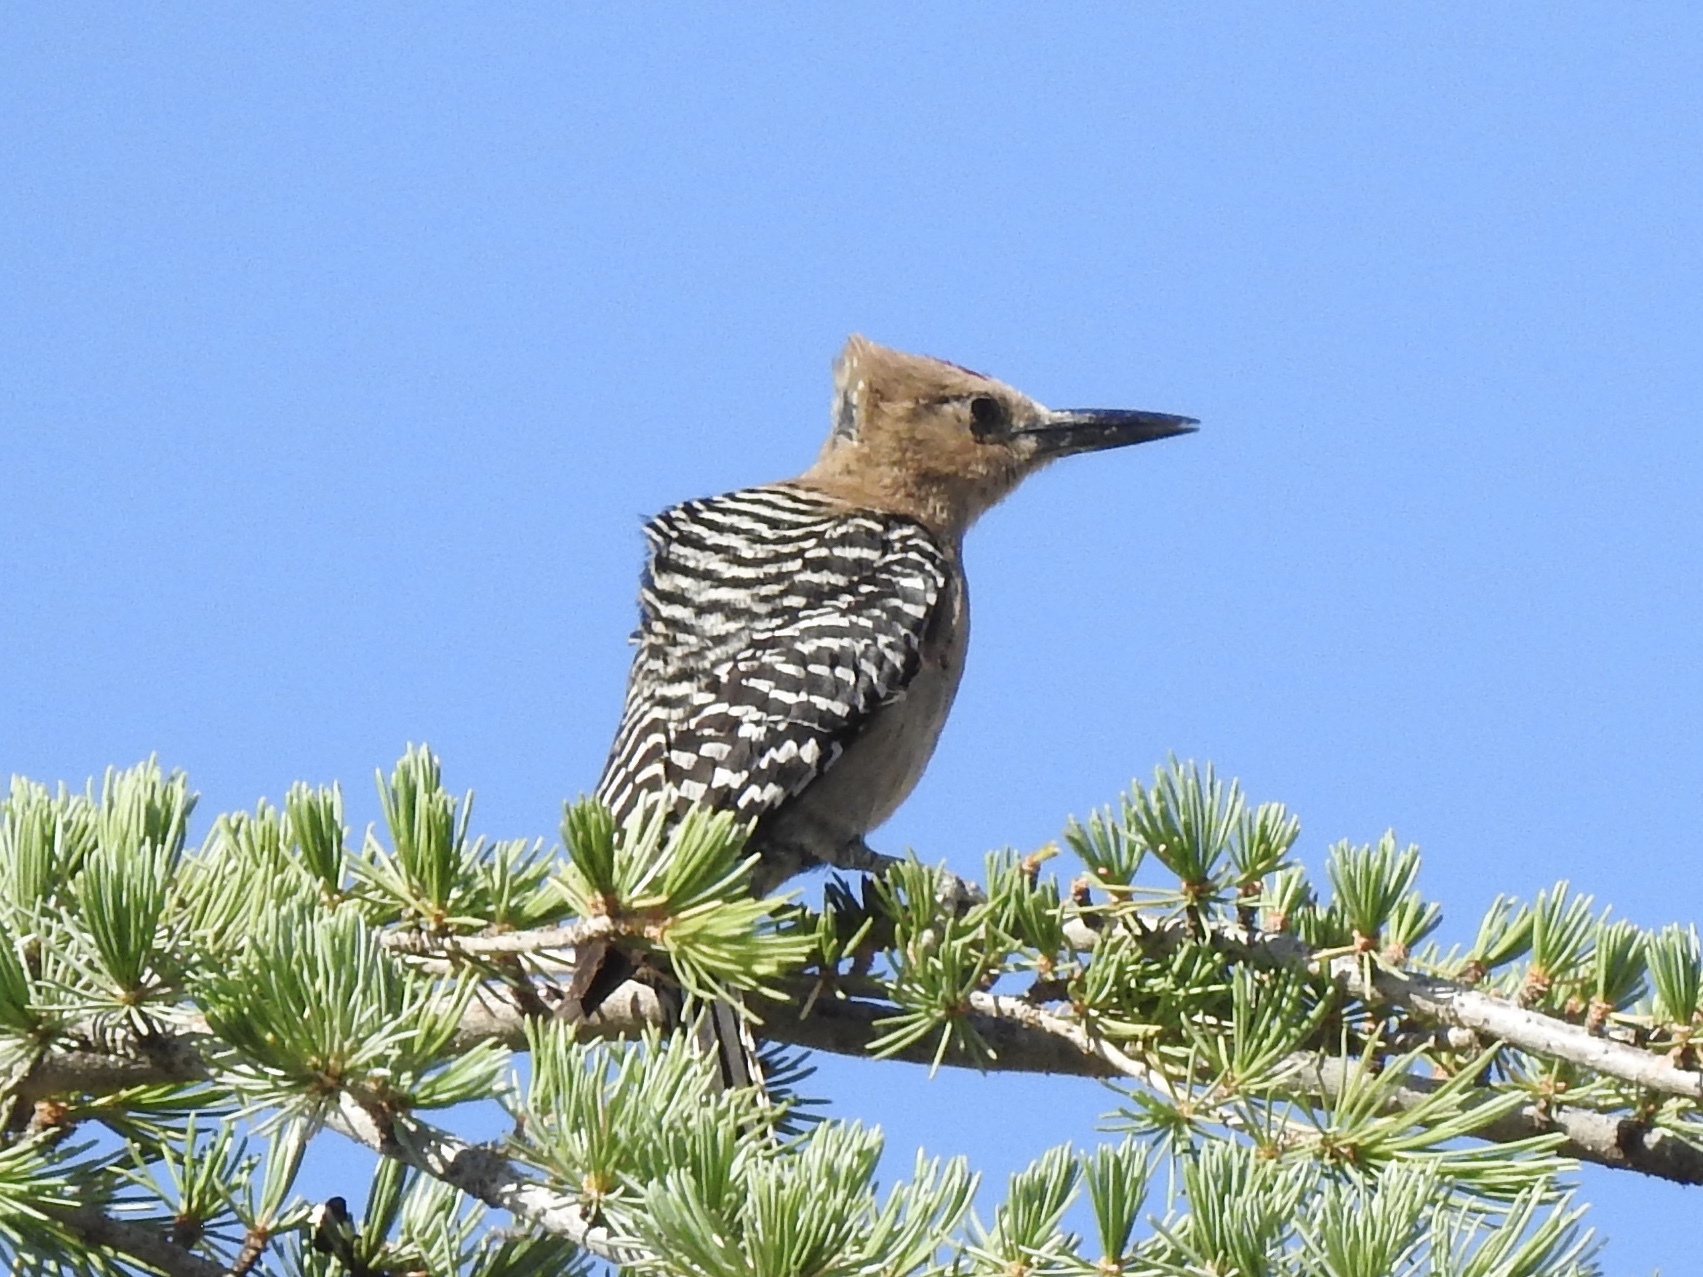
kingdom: Animalia
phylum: Chordata
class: Aves
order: Piciformes
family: Picidae
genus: Melanerpes
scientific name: Melanerpes uropygialis
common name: Gila woodpecker
